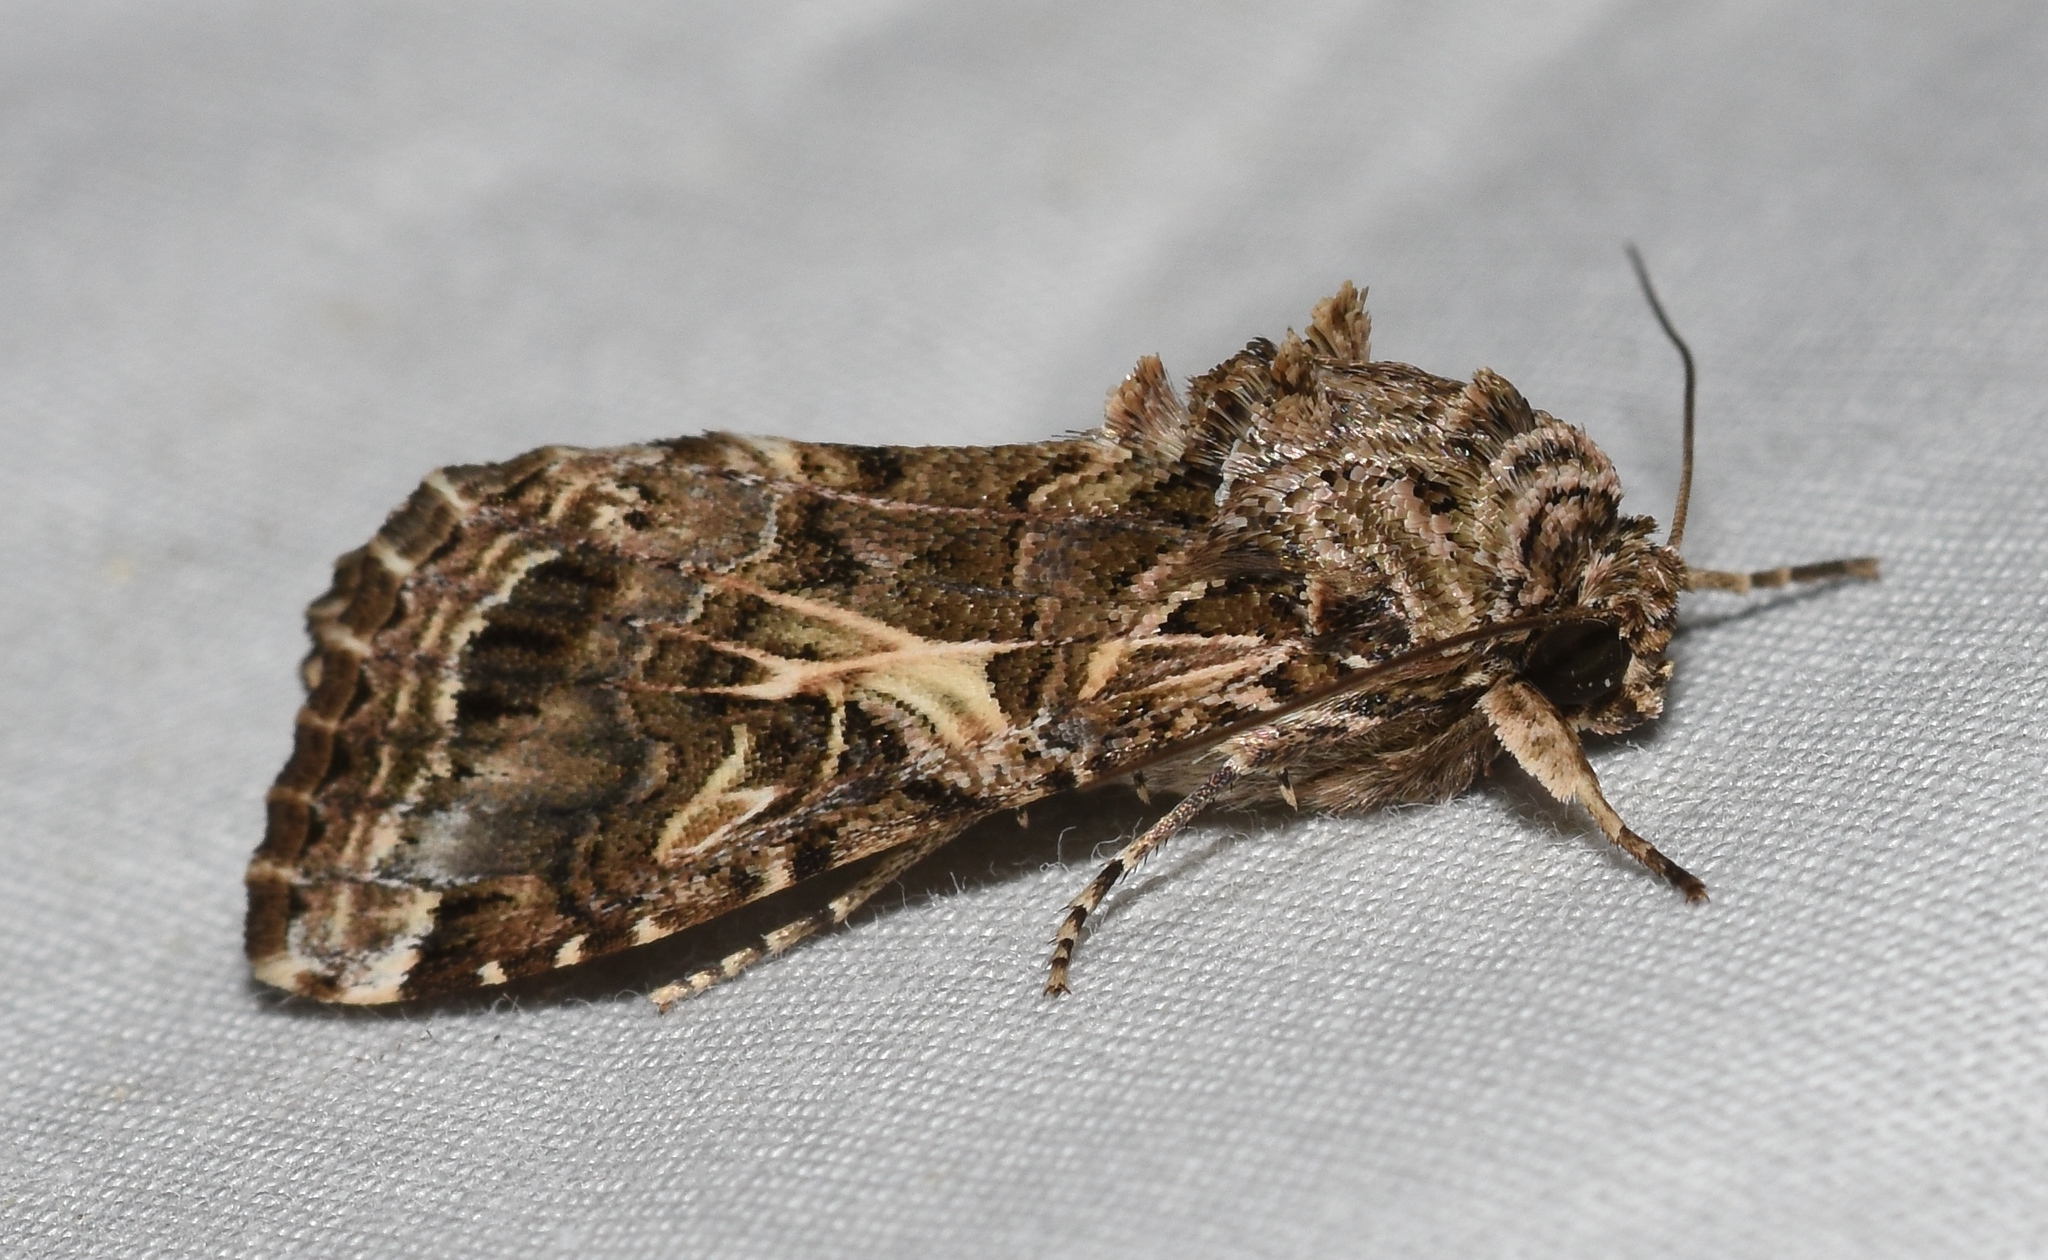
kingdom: Animalia
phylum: Arthropoda
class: Insecta
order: Lepidoptera
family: Noctuidae
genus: Spodoptera
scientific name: Spodoptera ornithogalli
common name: Yellow-striped armyworm
